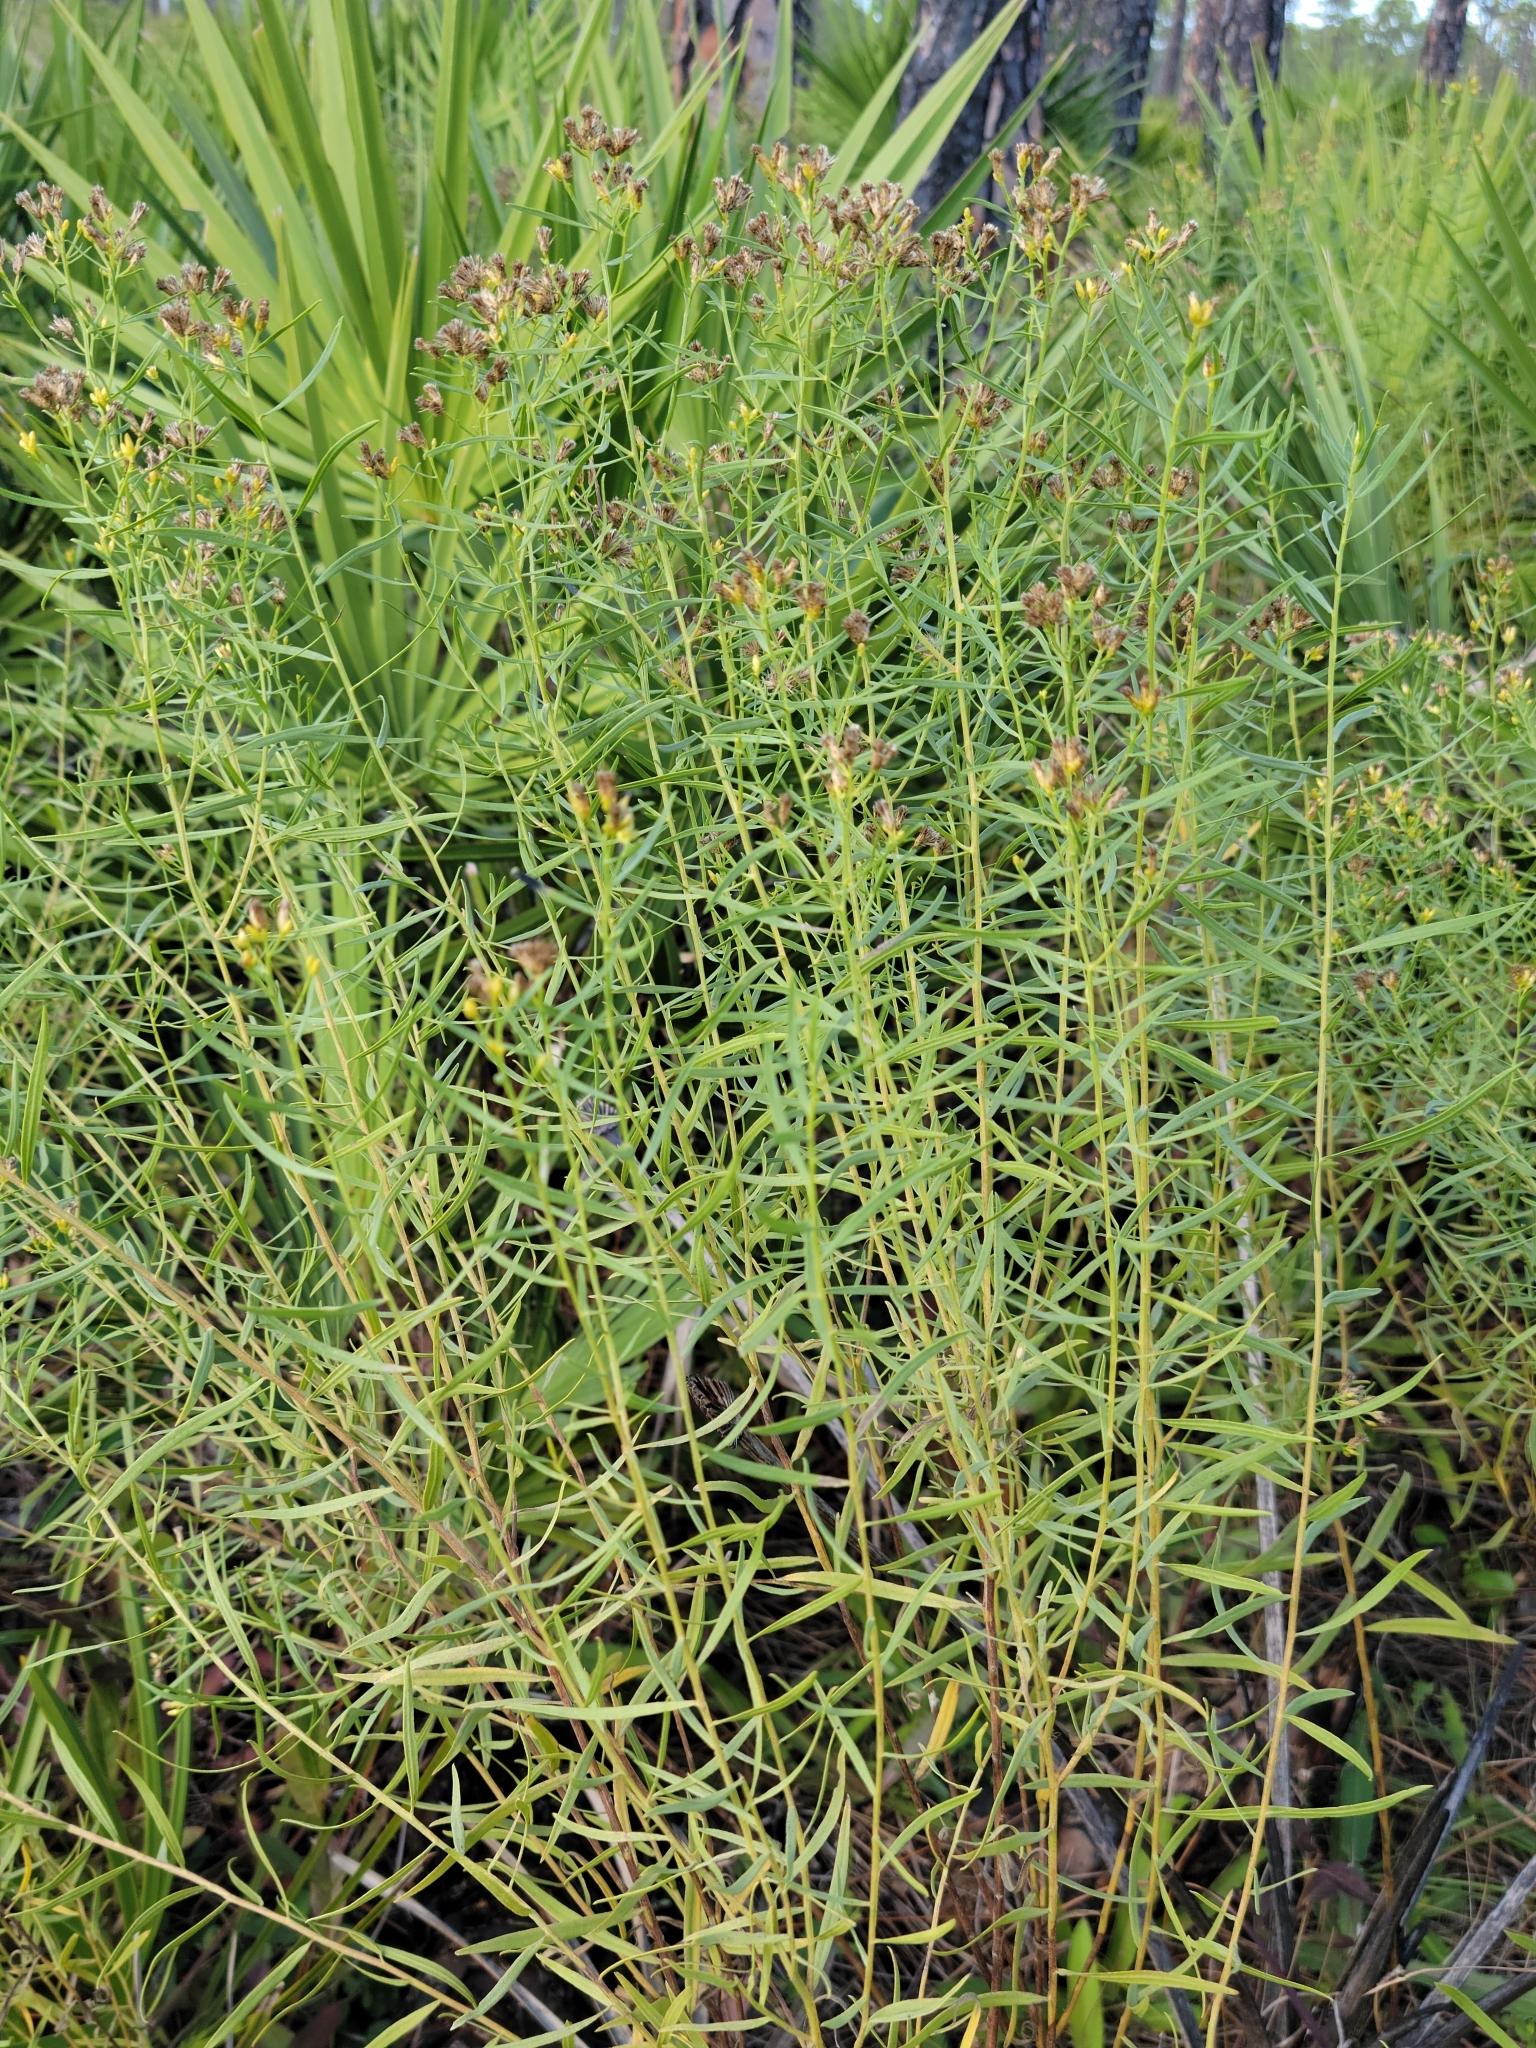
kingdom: Plantae
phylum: Tracheophyta
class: Magnoliopsida
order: Asterales
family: Asteraceae
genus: Euthamia
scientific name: Euthamia weakleyi
